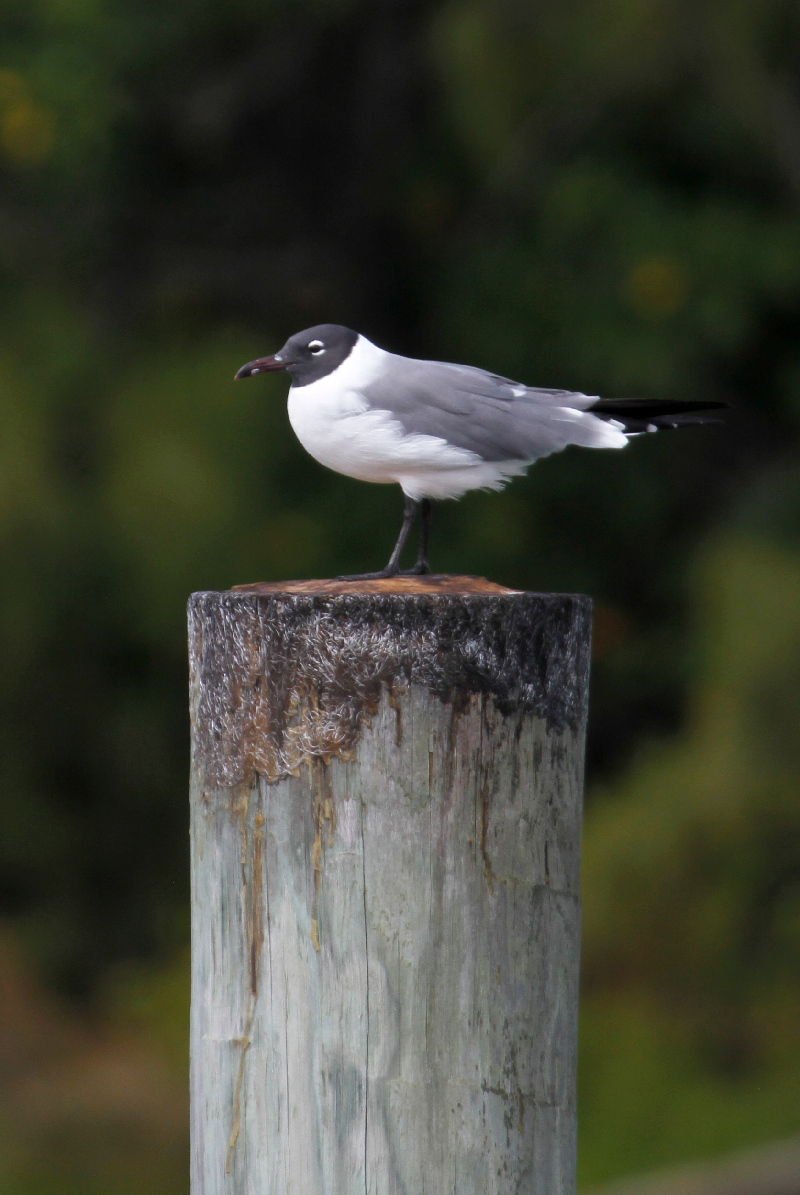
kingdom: Animalia
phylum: Chordata
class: Aves
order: Charadriiformes
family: Laridae
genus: Leucophaeus
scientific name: Leucophaeus atricilla
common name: Laughing gull
